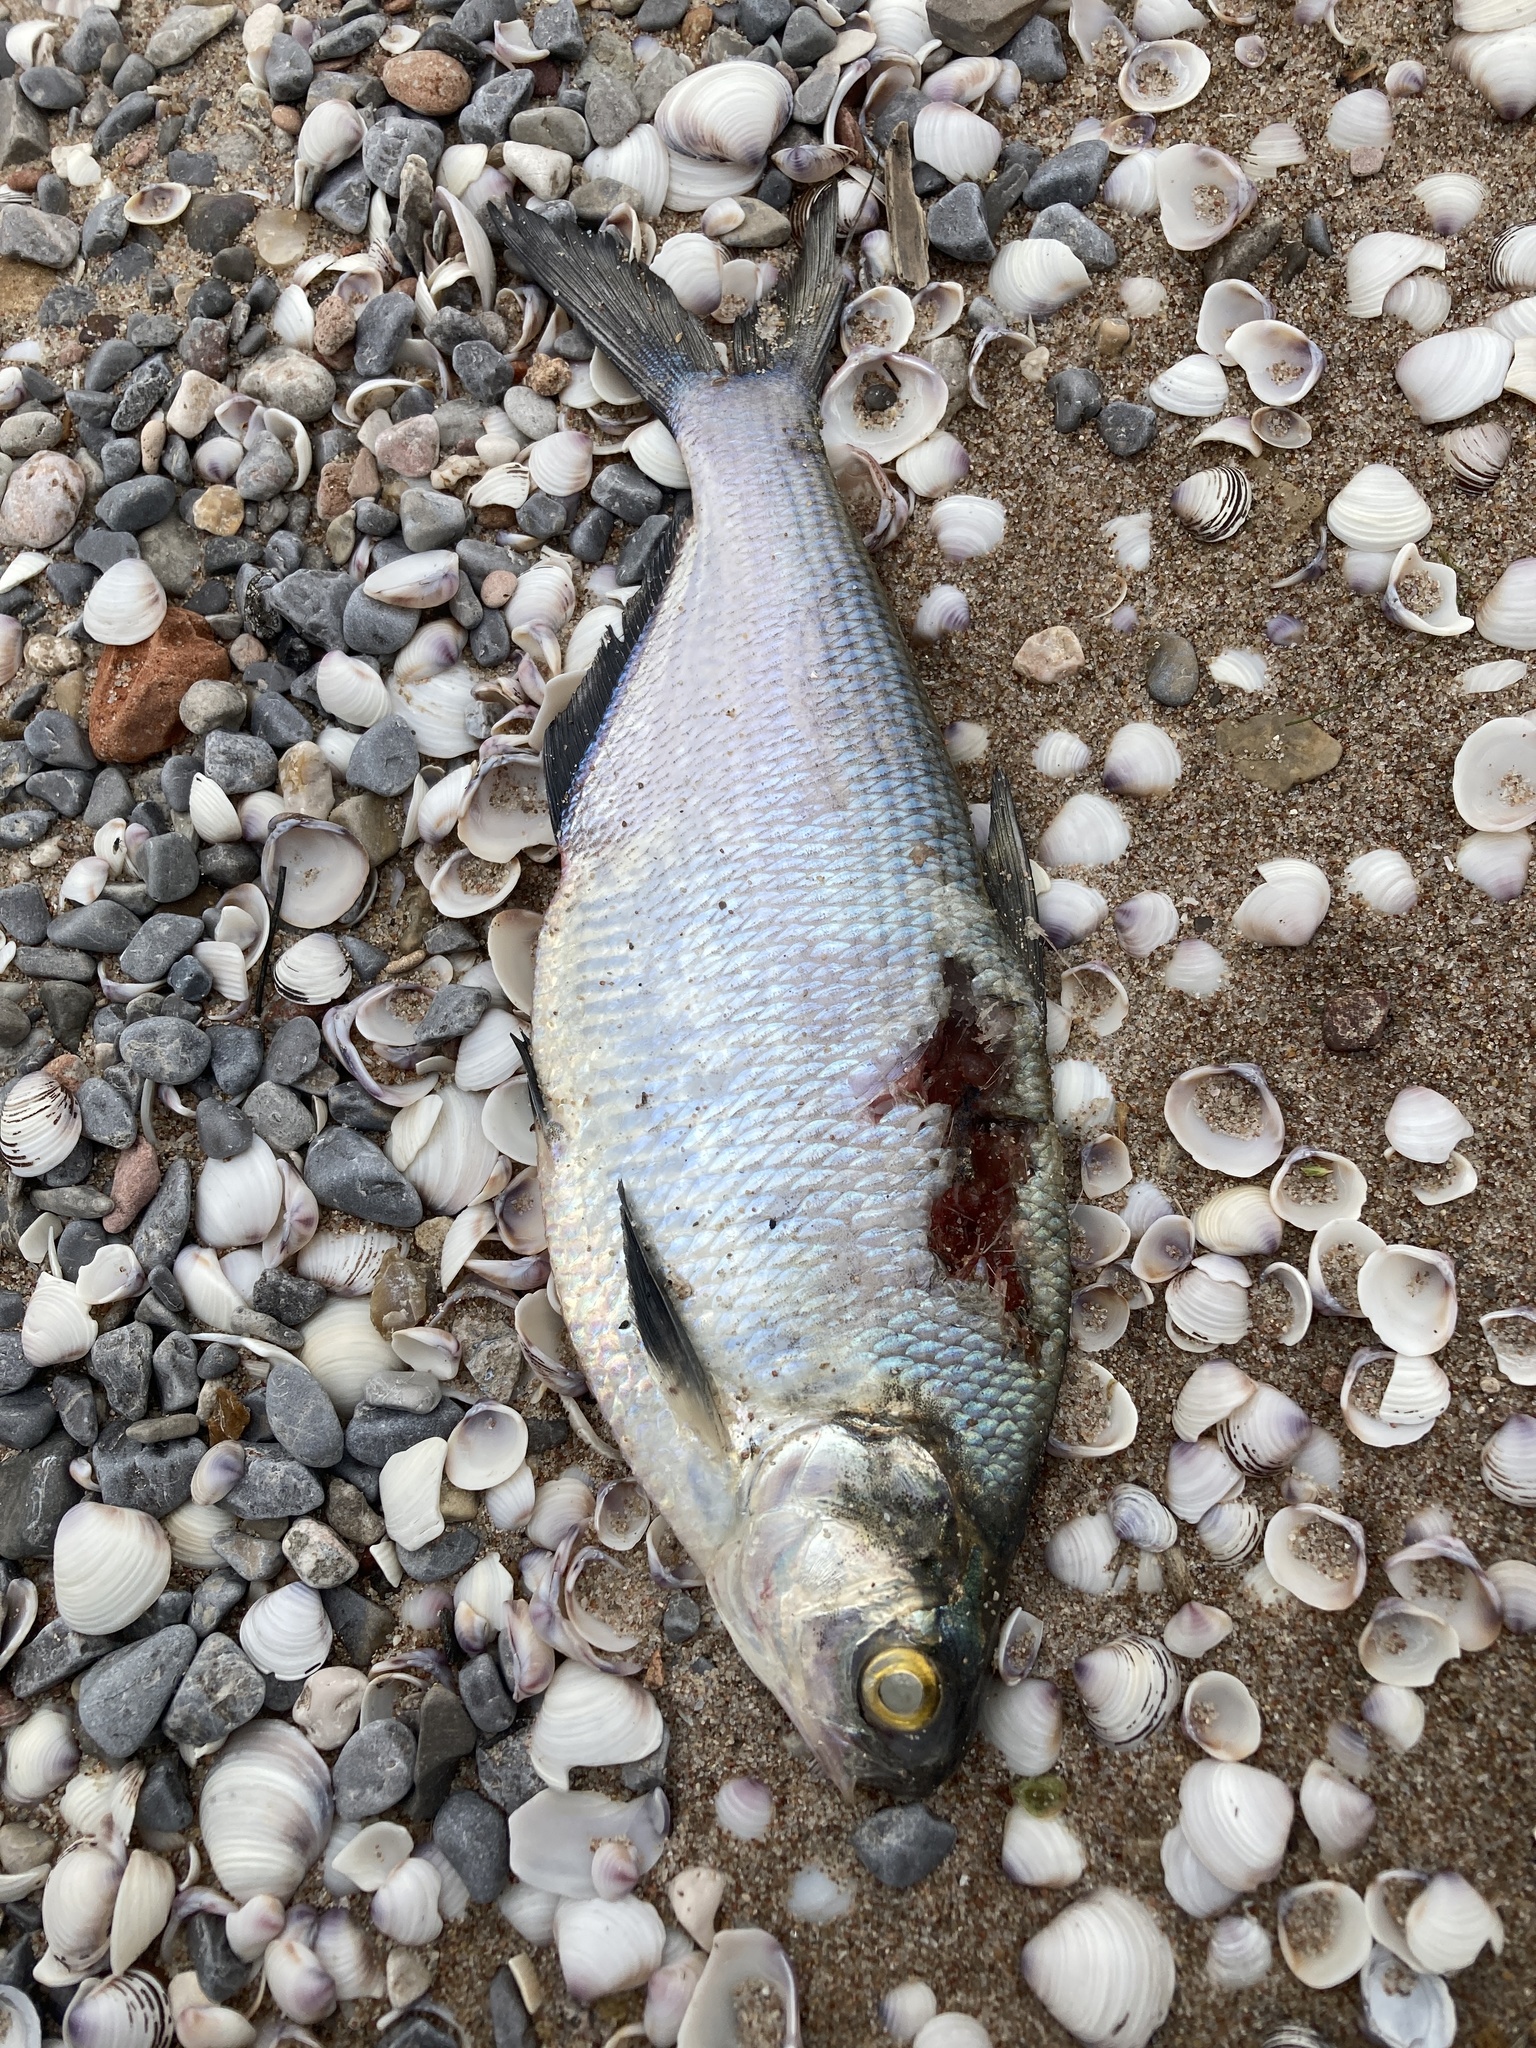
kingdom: Animalia
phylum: Chordata
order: Clupeiformes
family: Clupeidae
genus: Dorosoma
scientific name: Dorosoma cepedianum
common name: Gizzard shad
